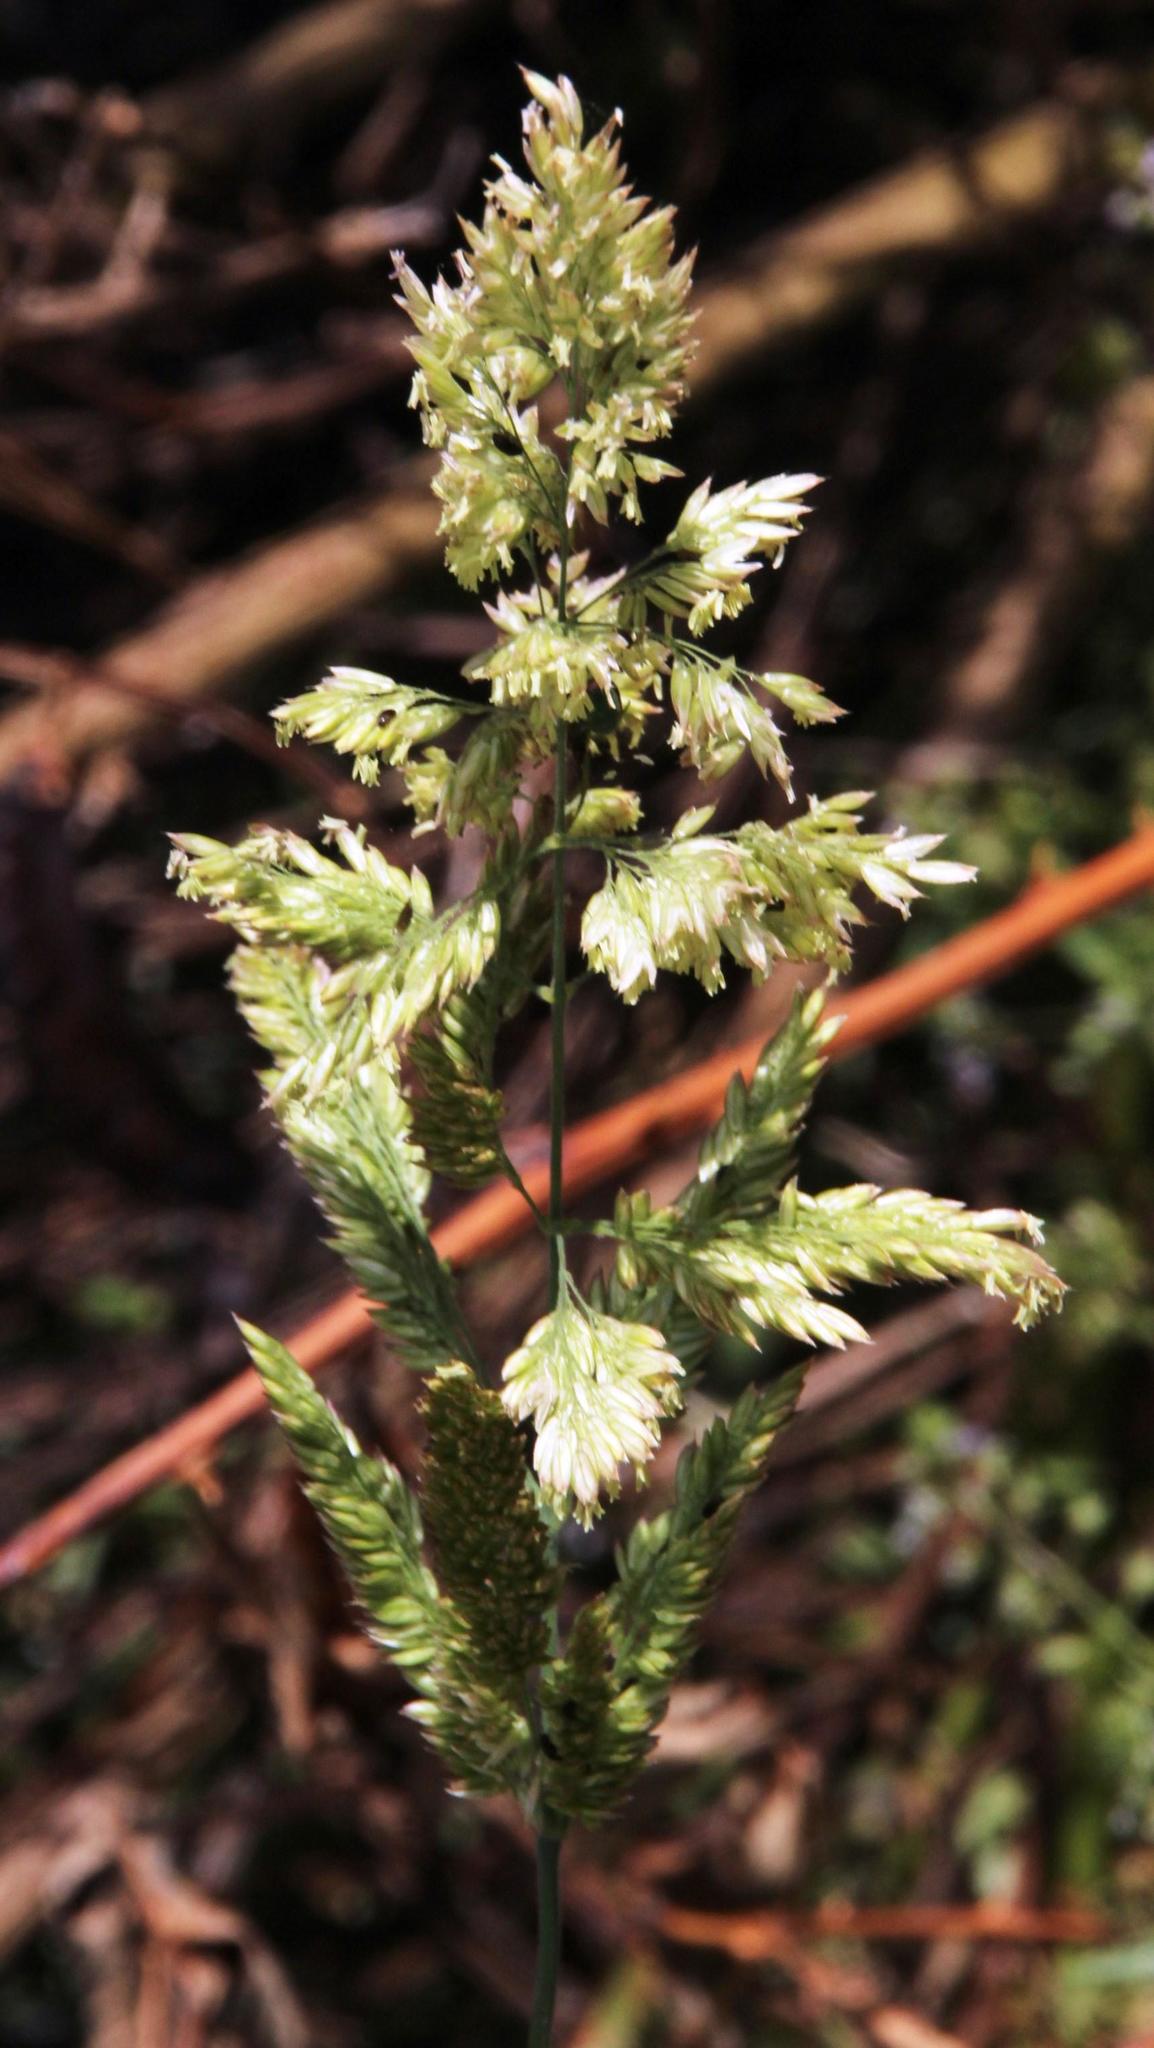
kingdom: Plantae
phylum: Tracheophyta
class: Liliopsida
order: Poales
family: Poaceae
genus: Holcus
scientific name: Holcus lanatus
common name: Yorkshire-fog
